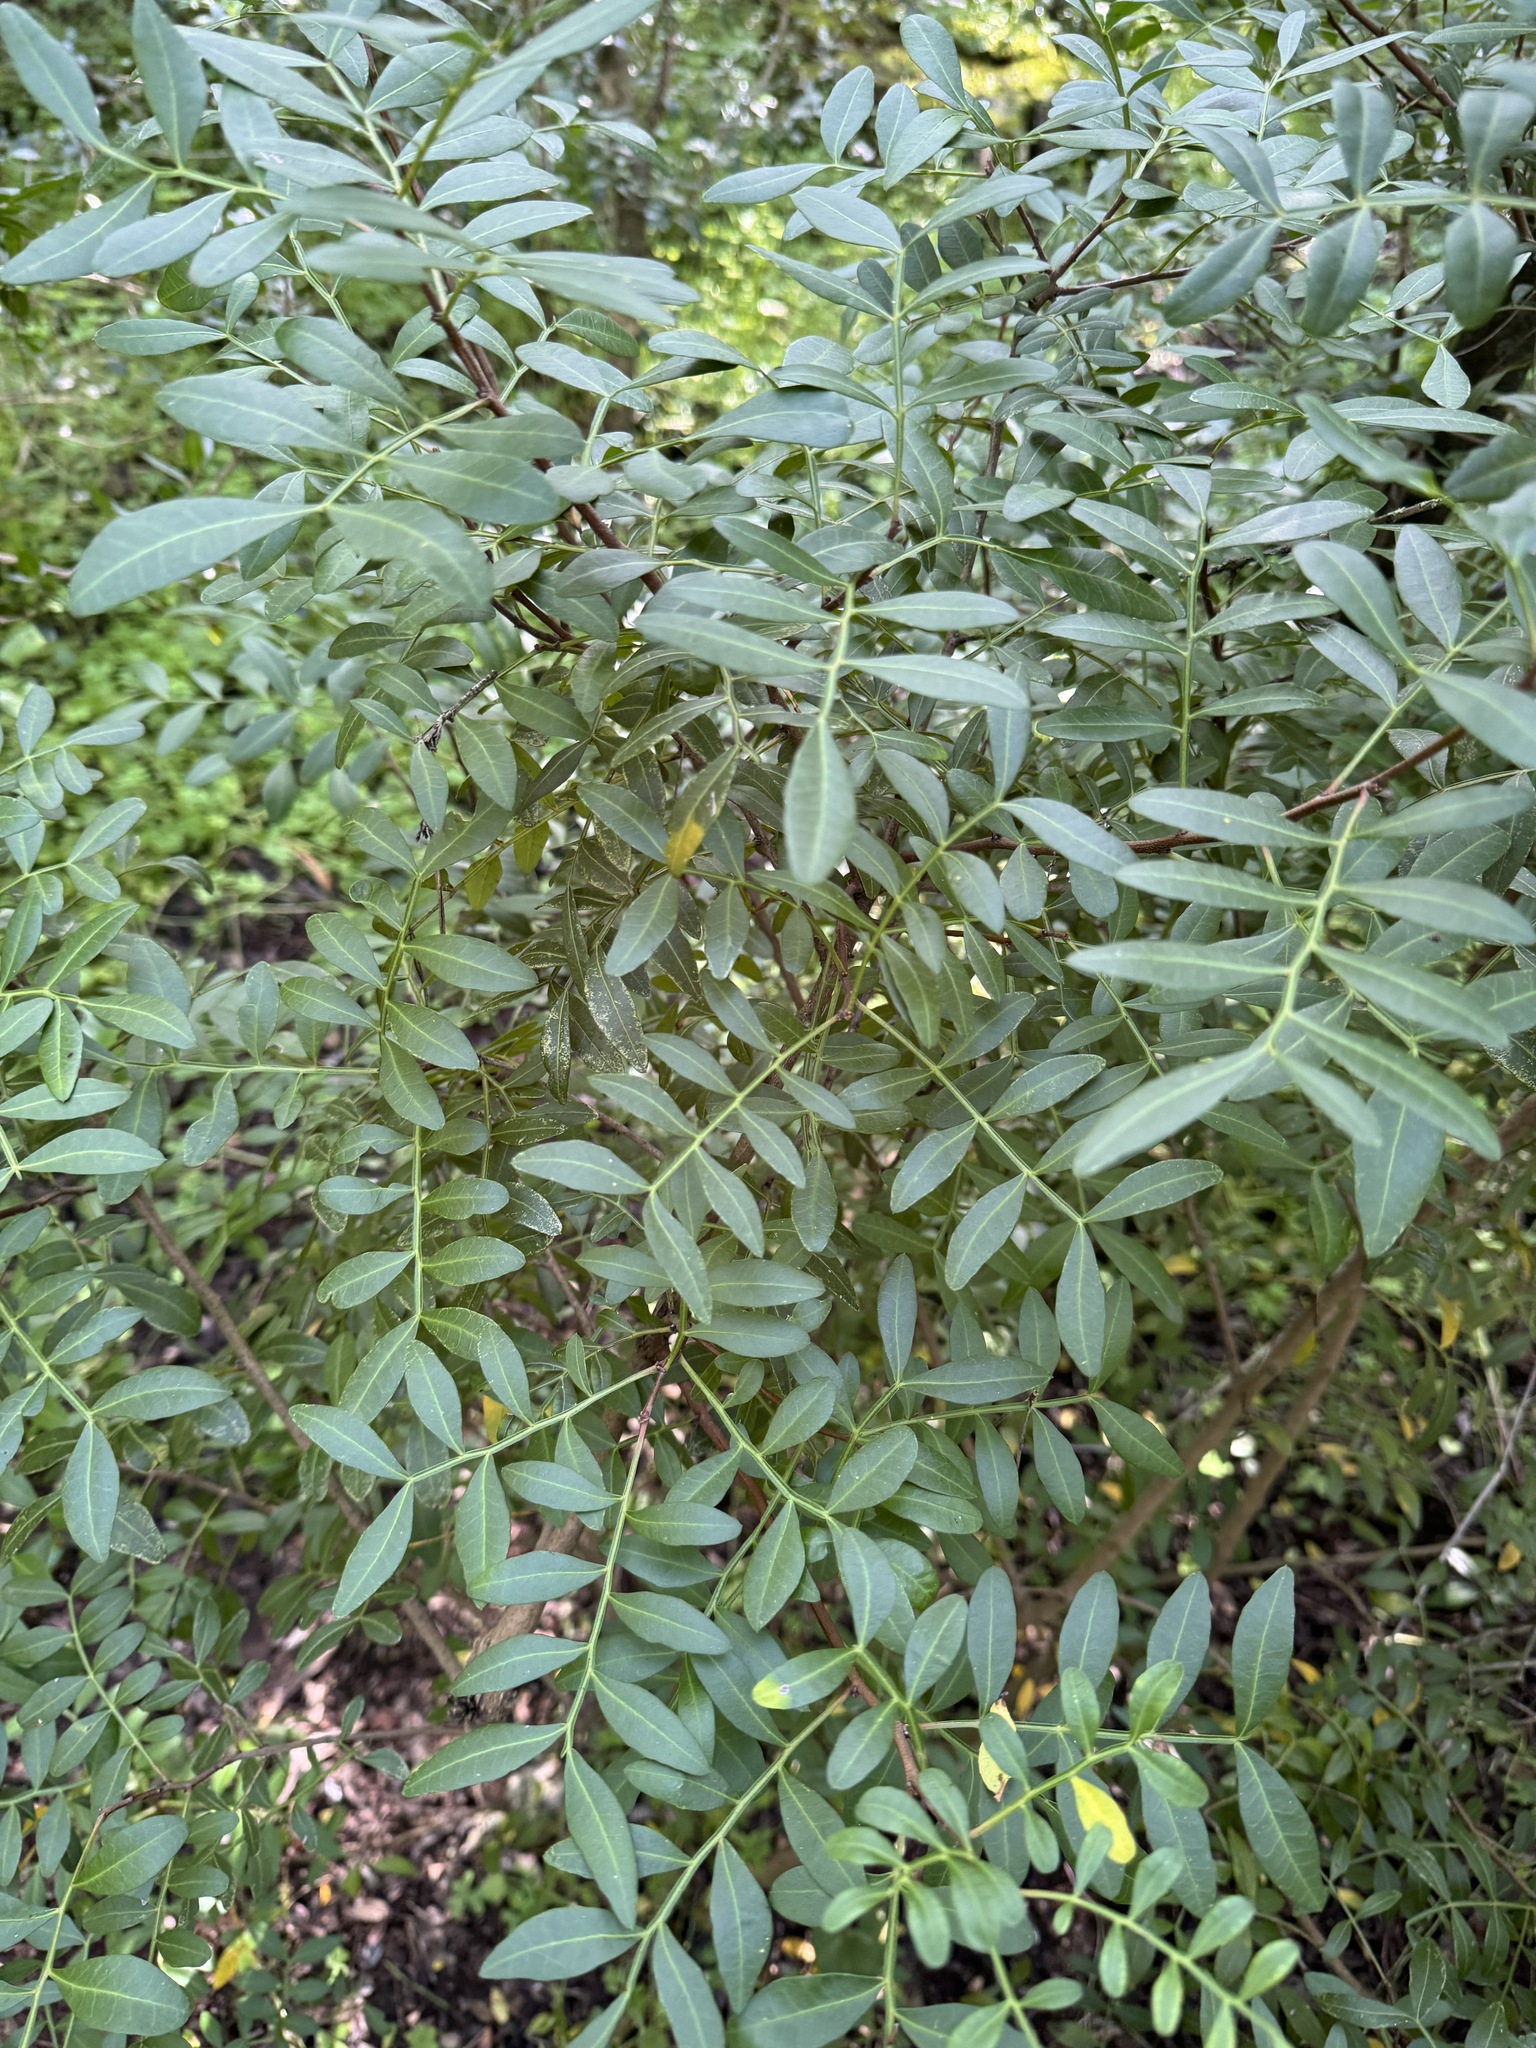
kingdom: Plantae
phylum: Tracheophyta
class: Magnoliopsida
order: Sapindales
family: Anacardiaceae
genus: Pistacia
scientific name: Pistacia lentiscus
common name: Lentisk
